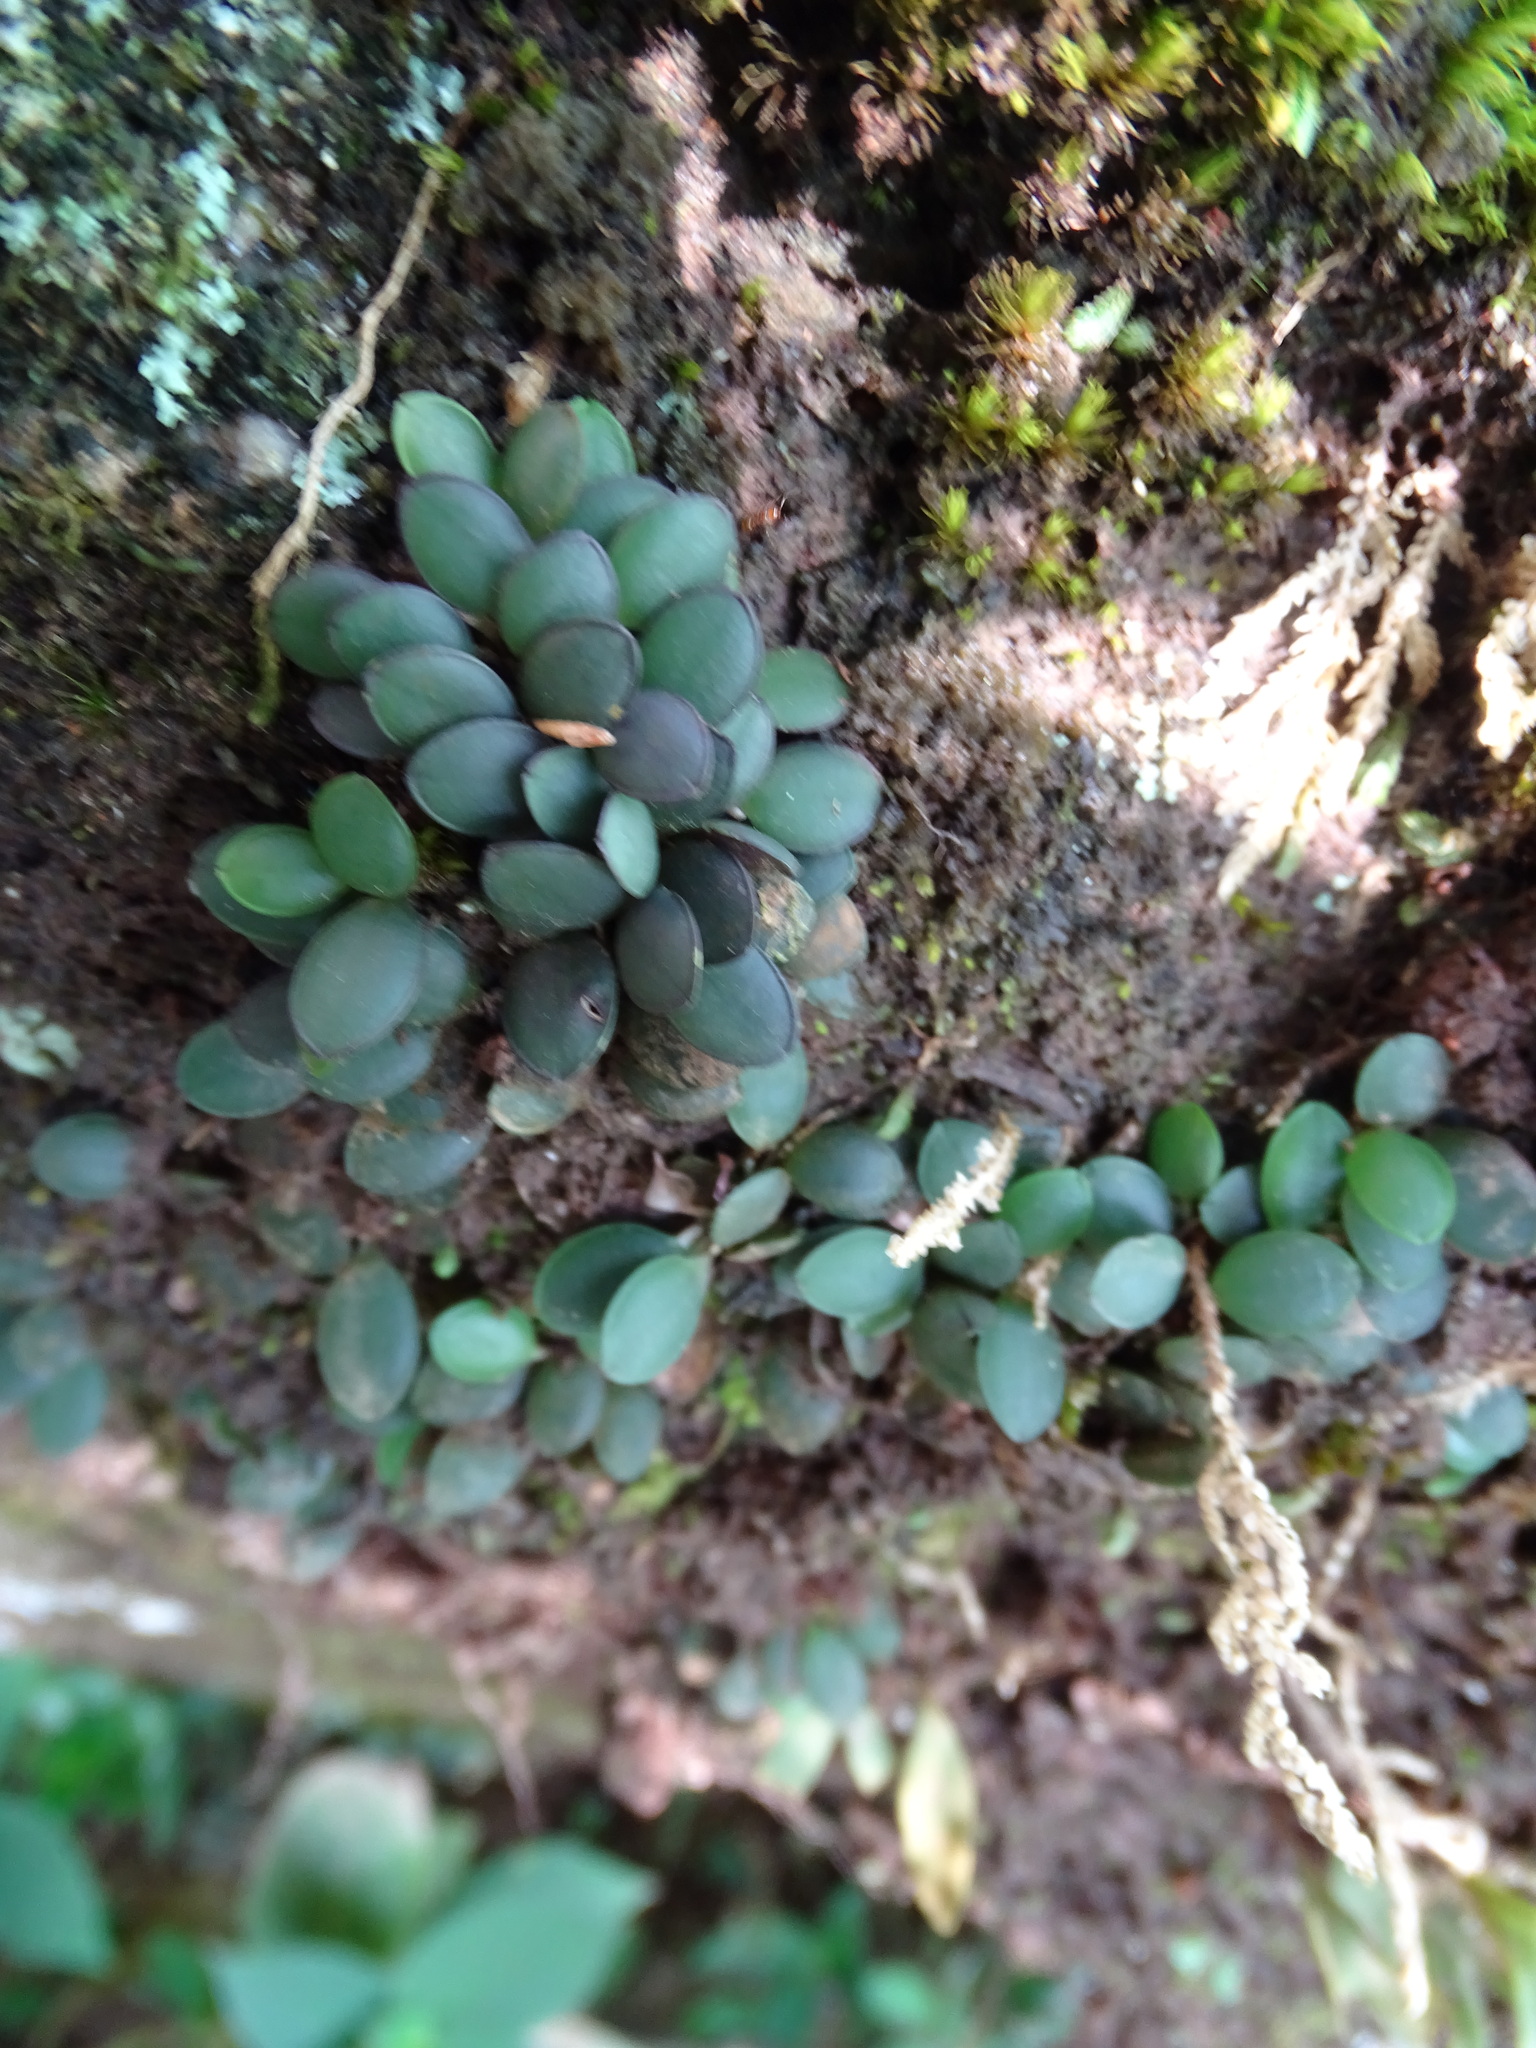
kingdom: Plantae
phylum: Tracheophyta
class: Liliopsida
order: Asparagales
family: Orchidaceae
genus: Specklinia
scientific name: Specklinia picta
